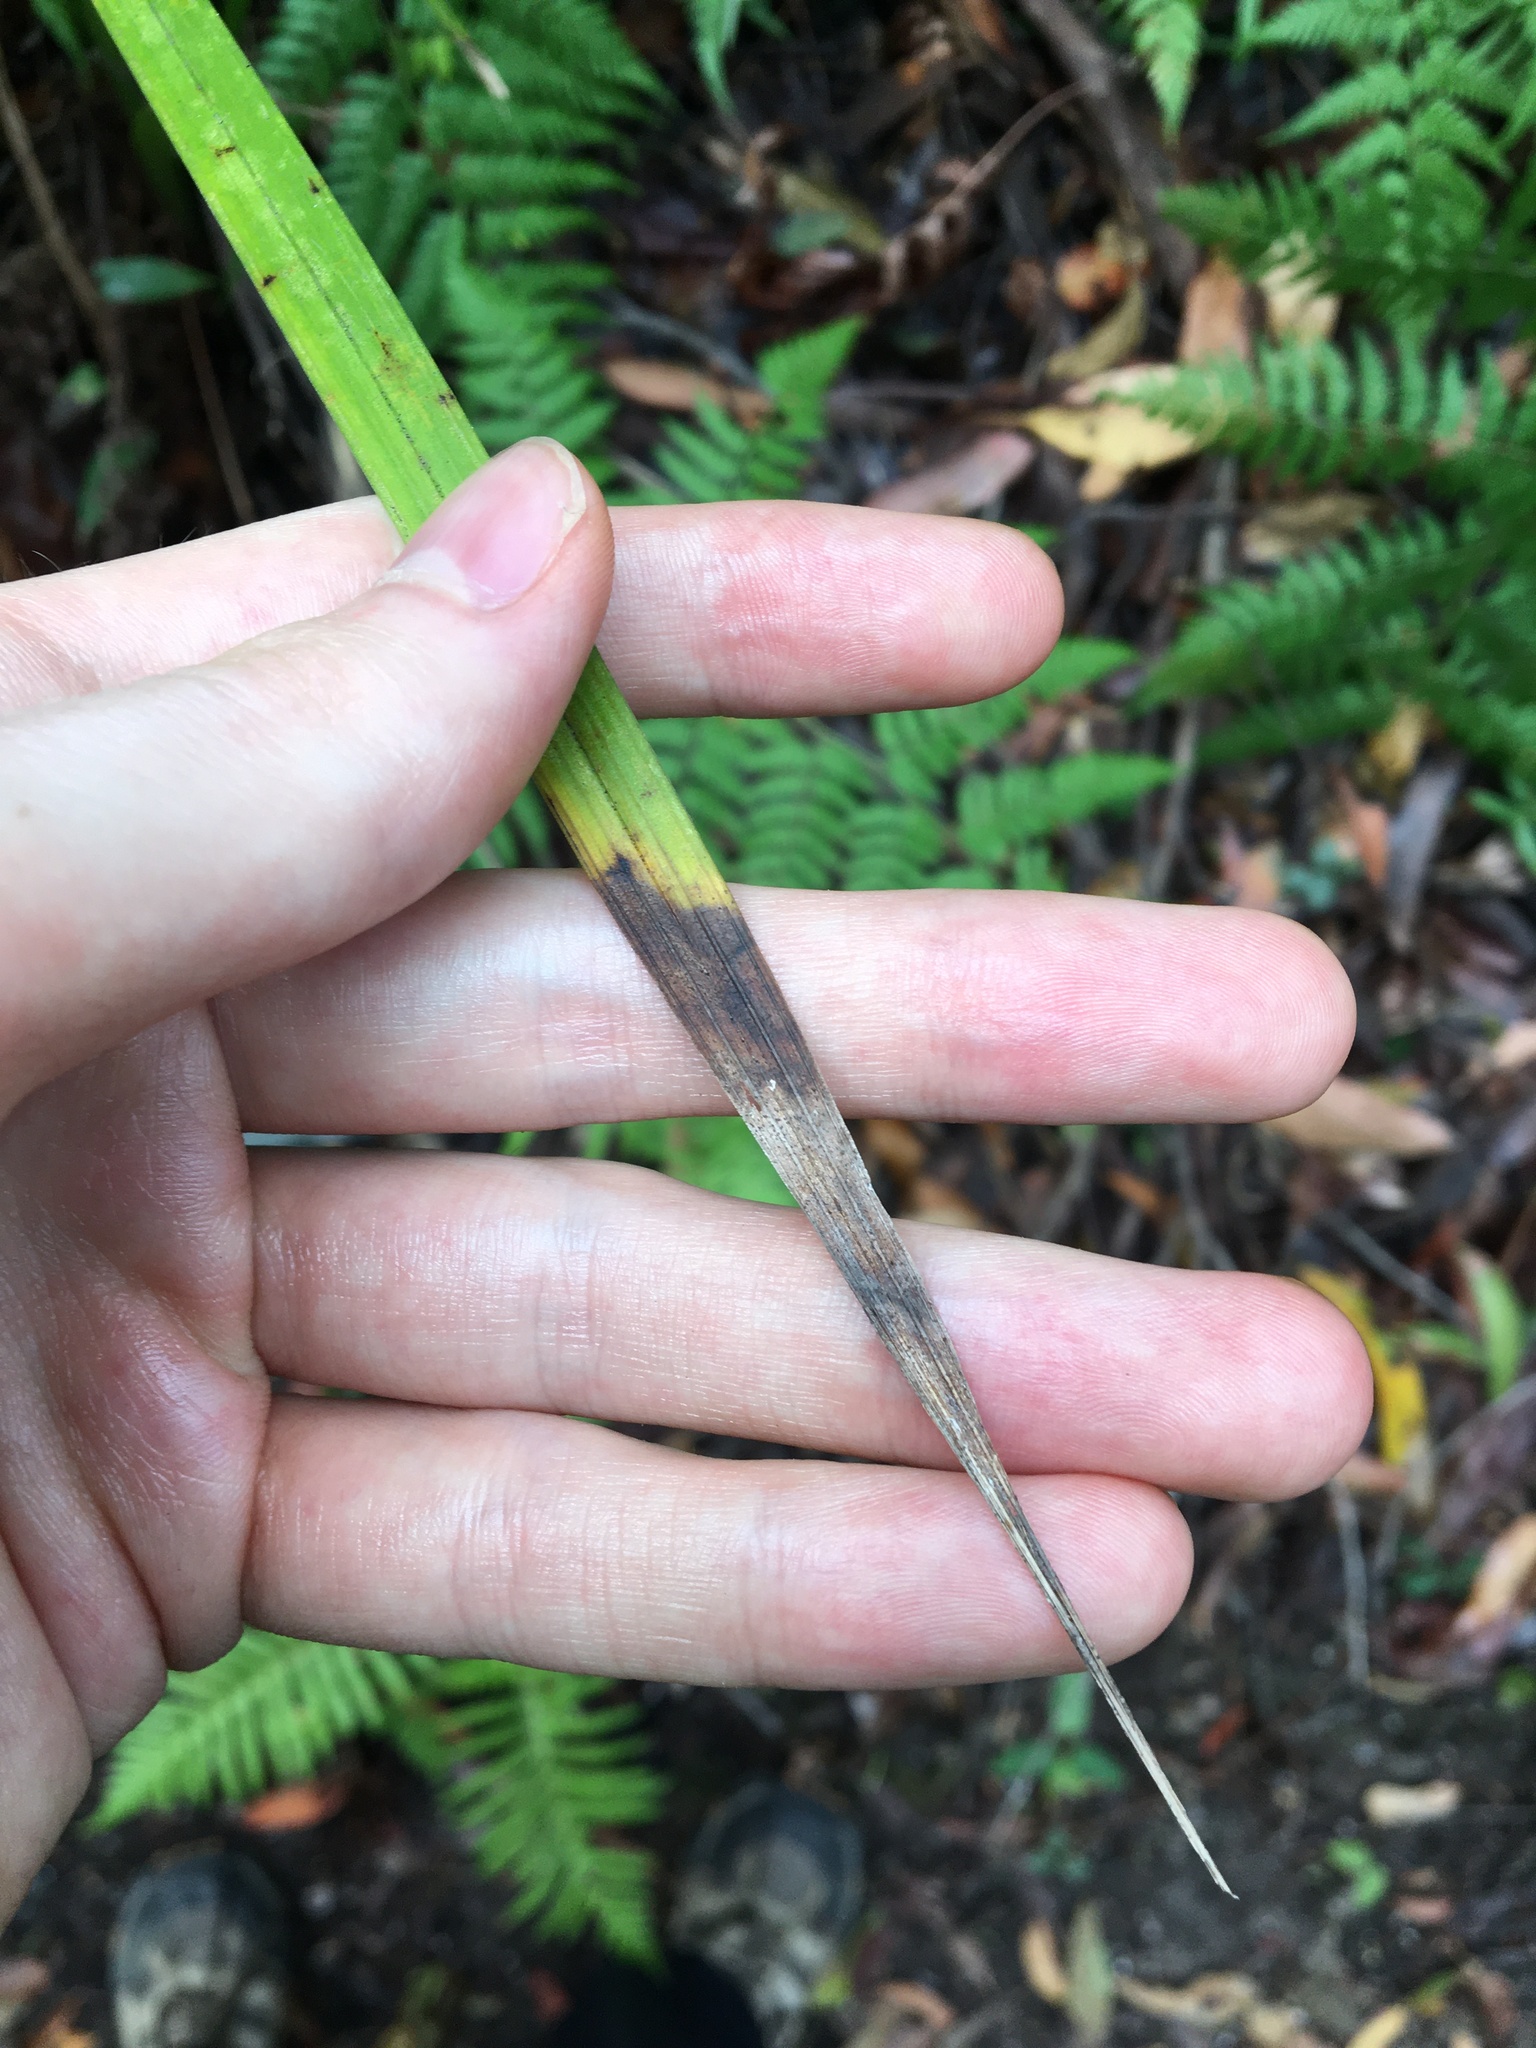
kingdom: Plantae
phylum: Tracheophyta
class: Liliopsida
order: Alismatales
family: Araceae
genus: Gymnostachys
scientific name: Gymnostachys anceps
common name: Settler's-flax
